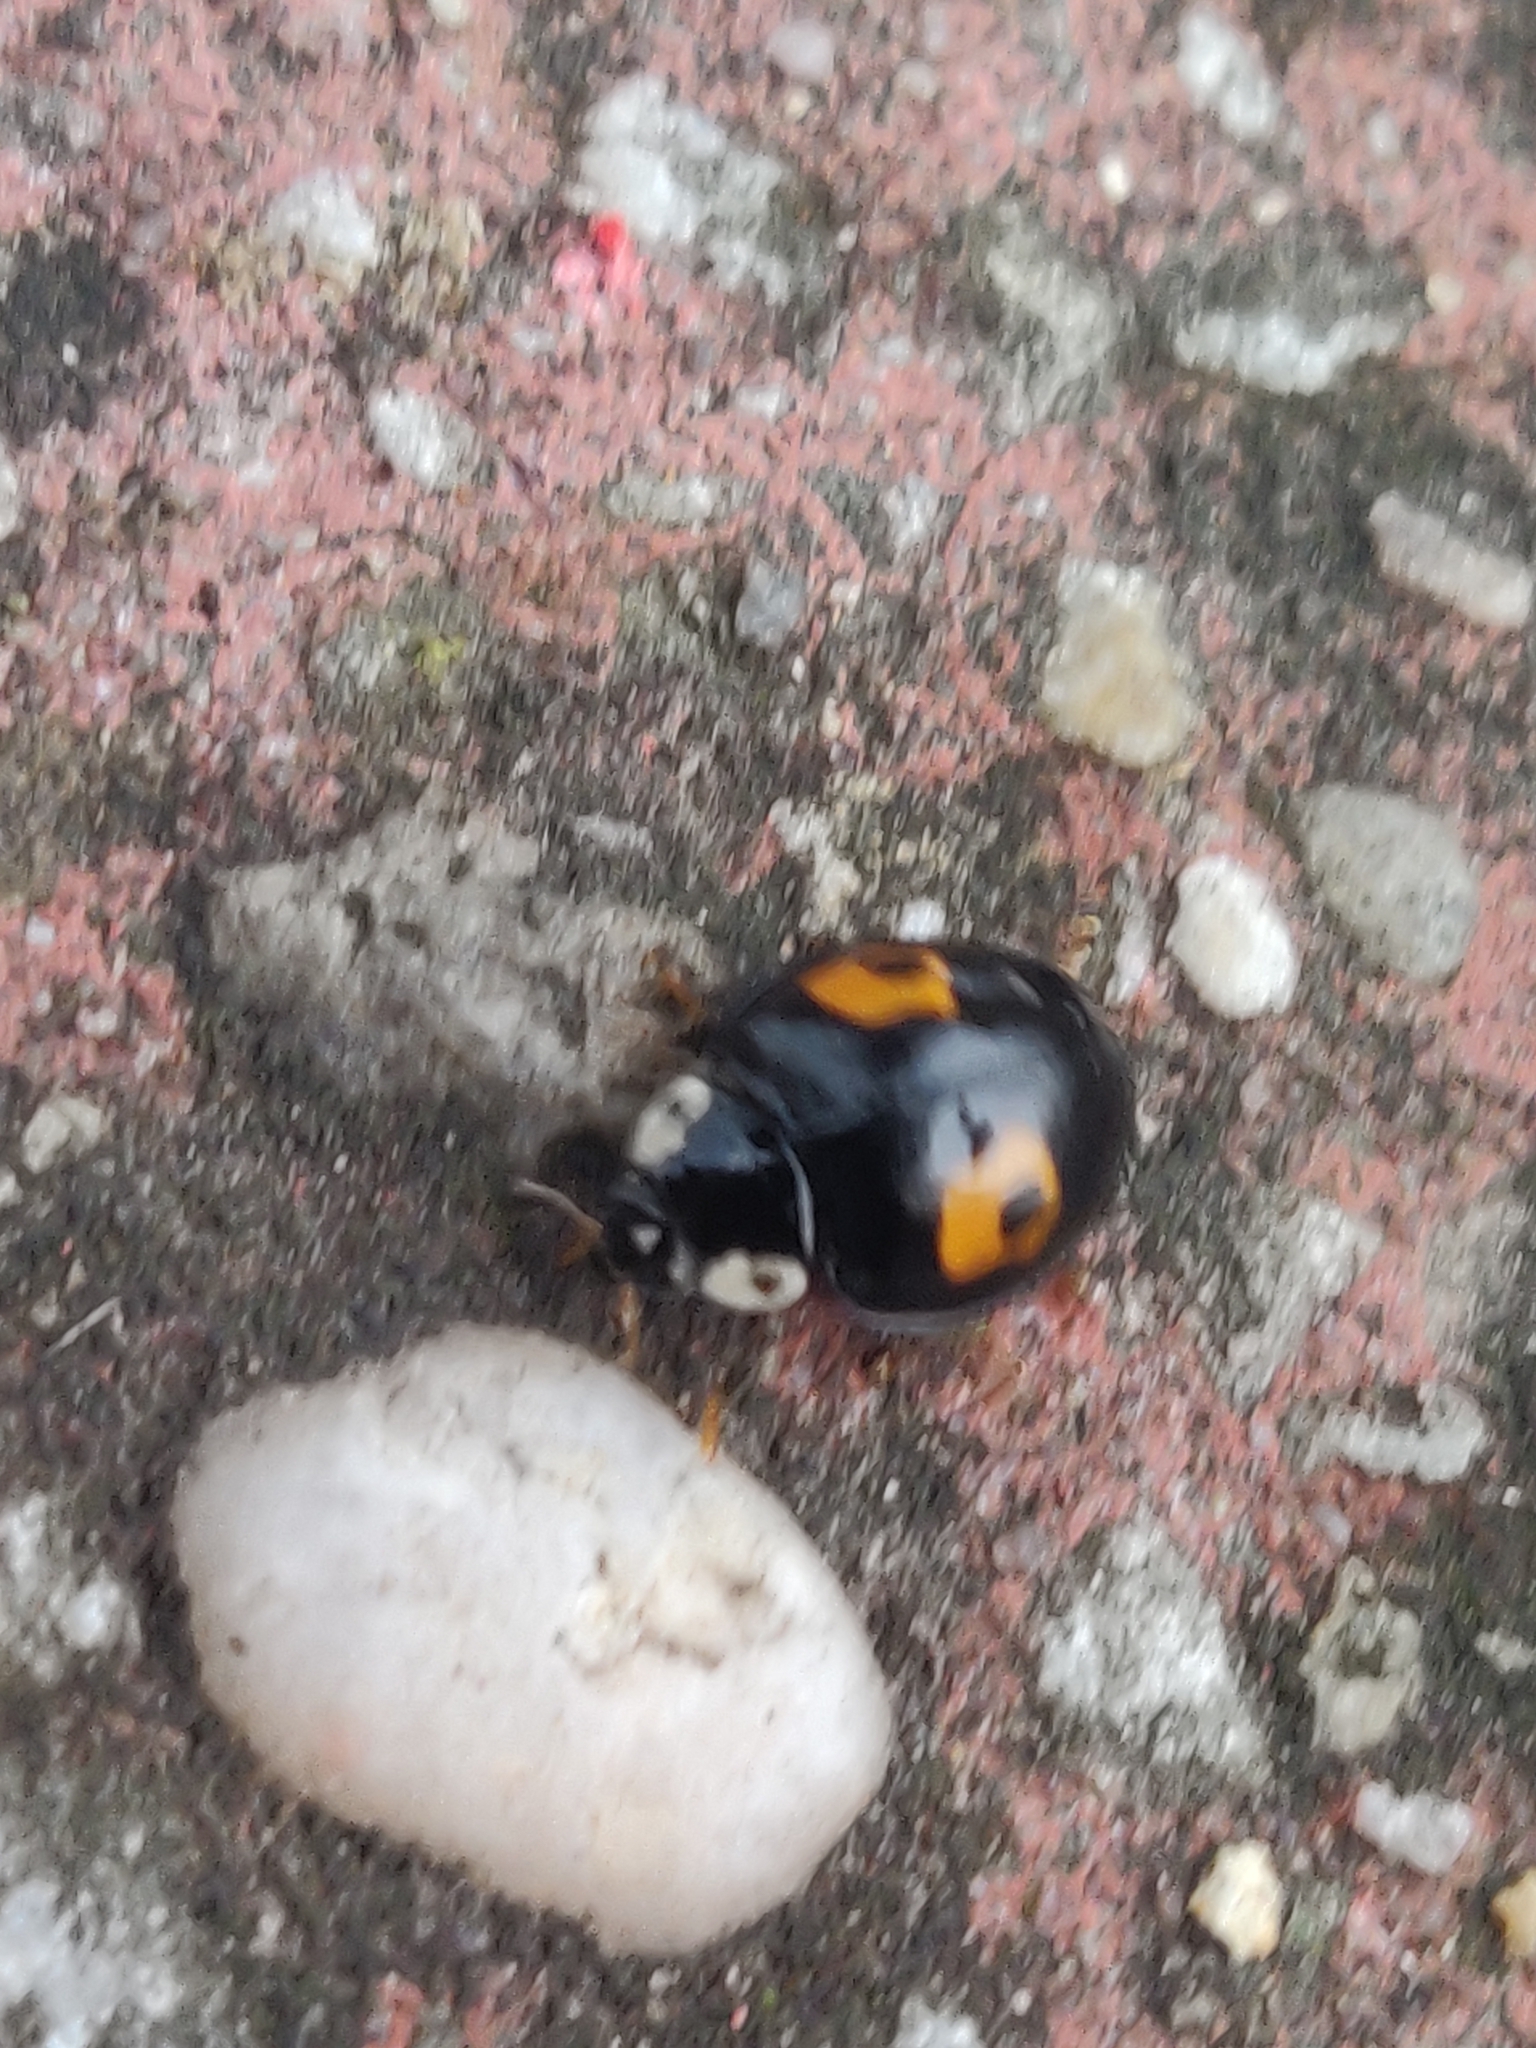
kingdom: Animalia
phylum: Arthropoda
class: Insecta
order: Coleoptera
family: Coccinellidae
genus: Harmonia
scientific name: Harmonia axyridis
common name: Harlequin ladybird
